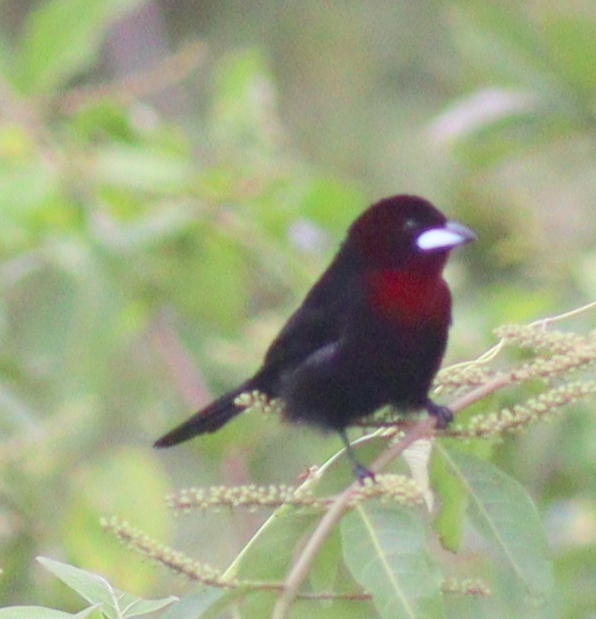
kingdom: Animalia
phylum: Chordata
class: Aves
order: Passeriformes
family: Thraupidae
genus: Ramphocelus
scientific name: Ramphocelus carbo
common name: Silver-beaked tanager
